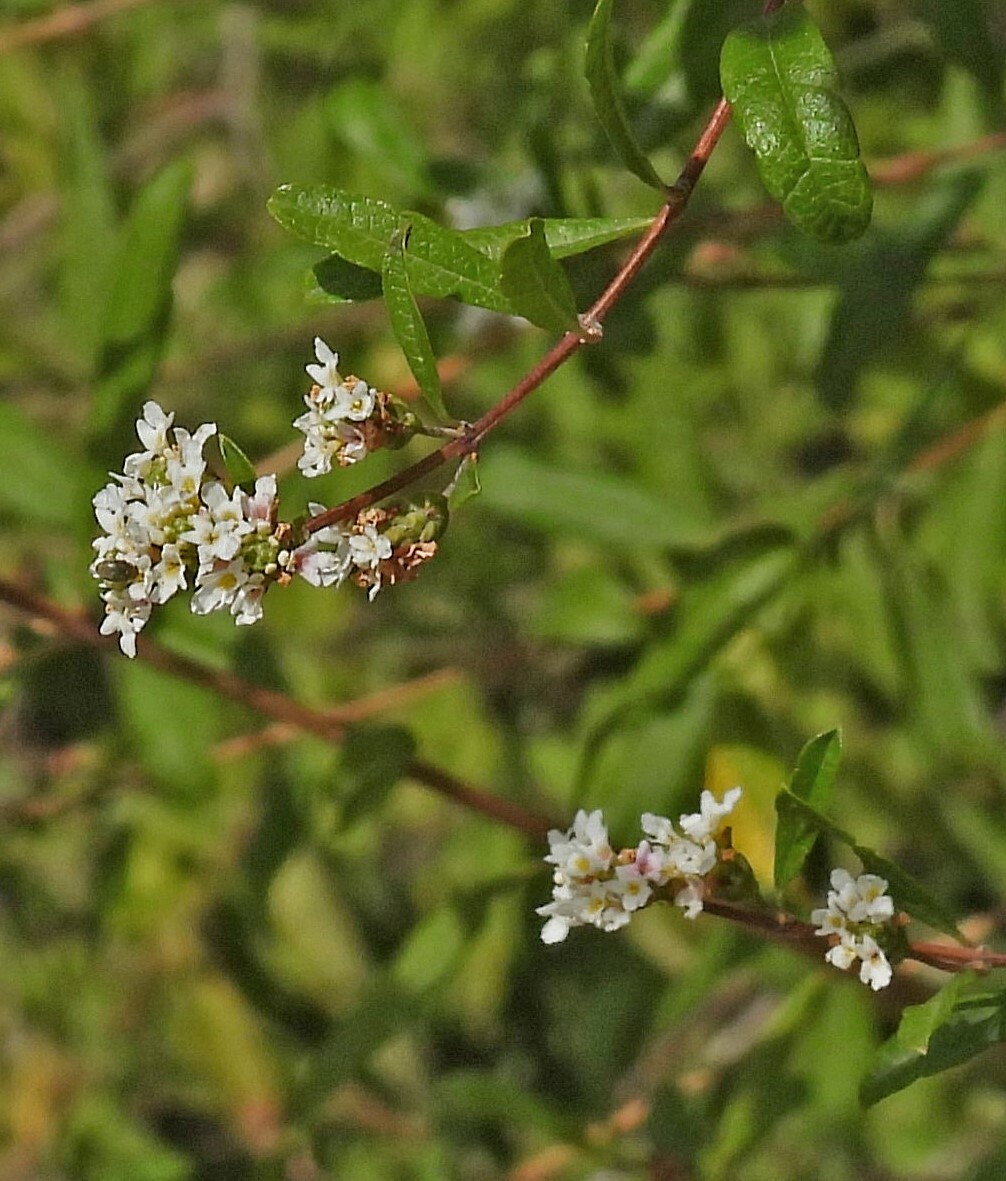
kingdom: Plantae
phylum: Tracheophyta
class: Magnoliopsida
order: Lamiales
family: Verbenaceae
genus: Lippia
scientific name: Lippia integrifolia
